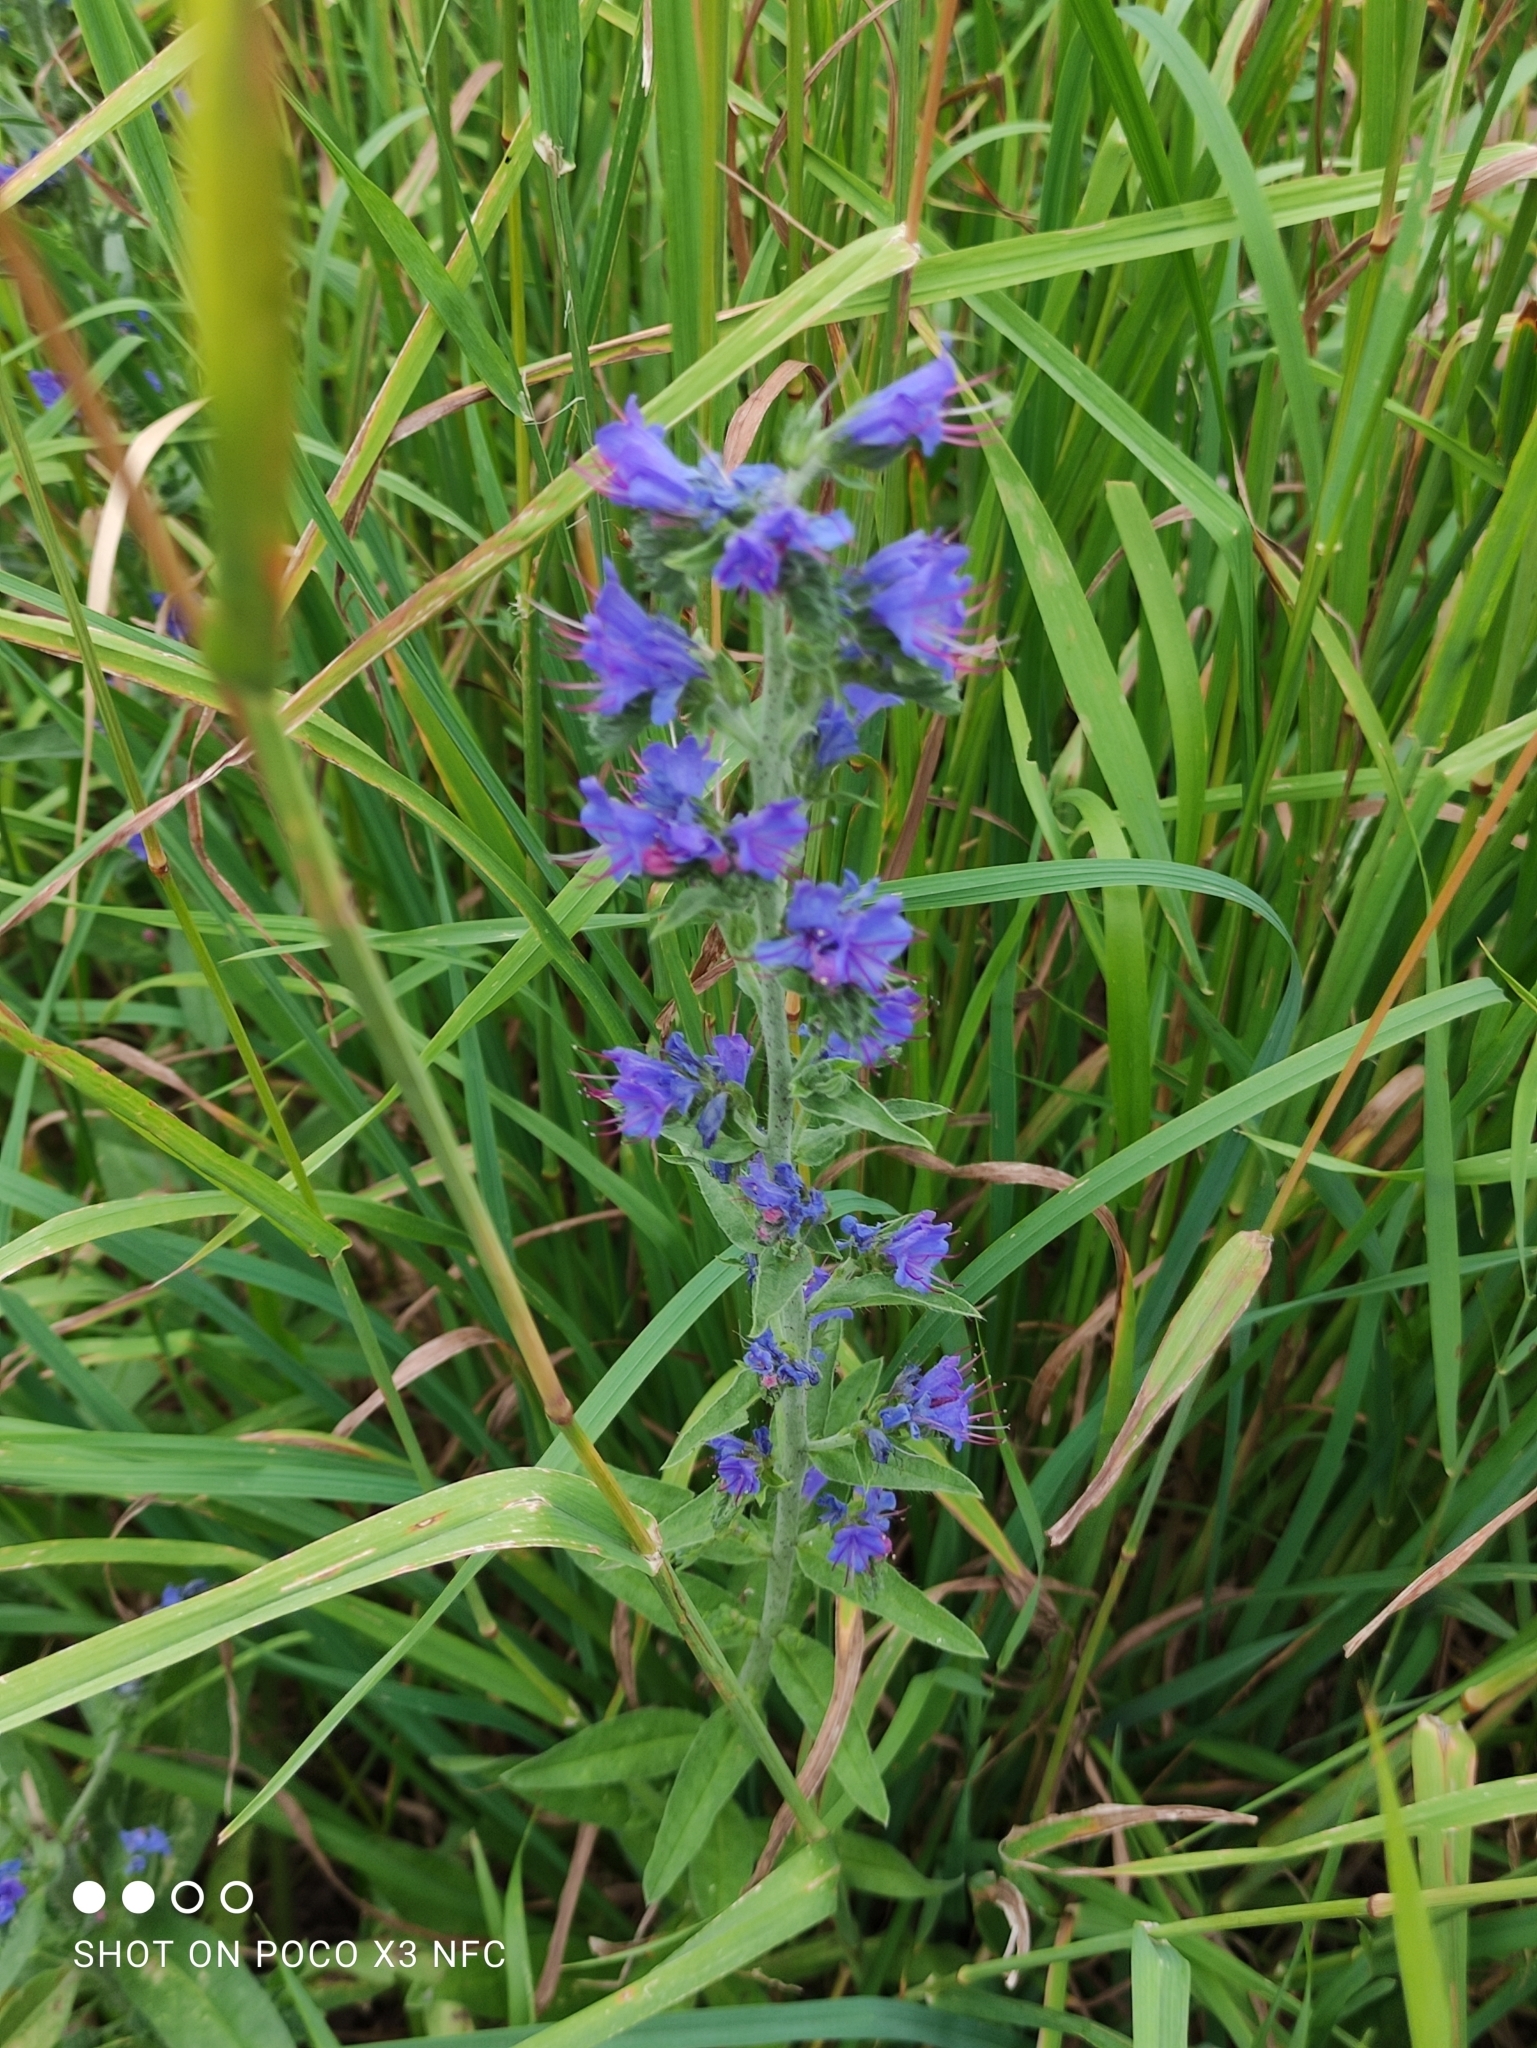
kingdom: Plantae
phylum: Tracheophyta
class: Magnoliopsida
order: Boraginales
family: Boraginaceae
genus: Echium
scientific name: Echium vulgare
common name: Common viper's bugloss
